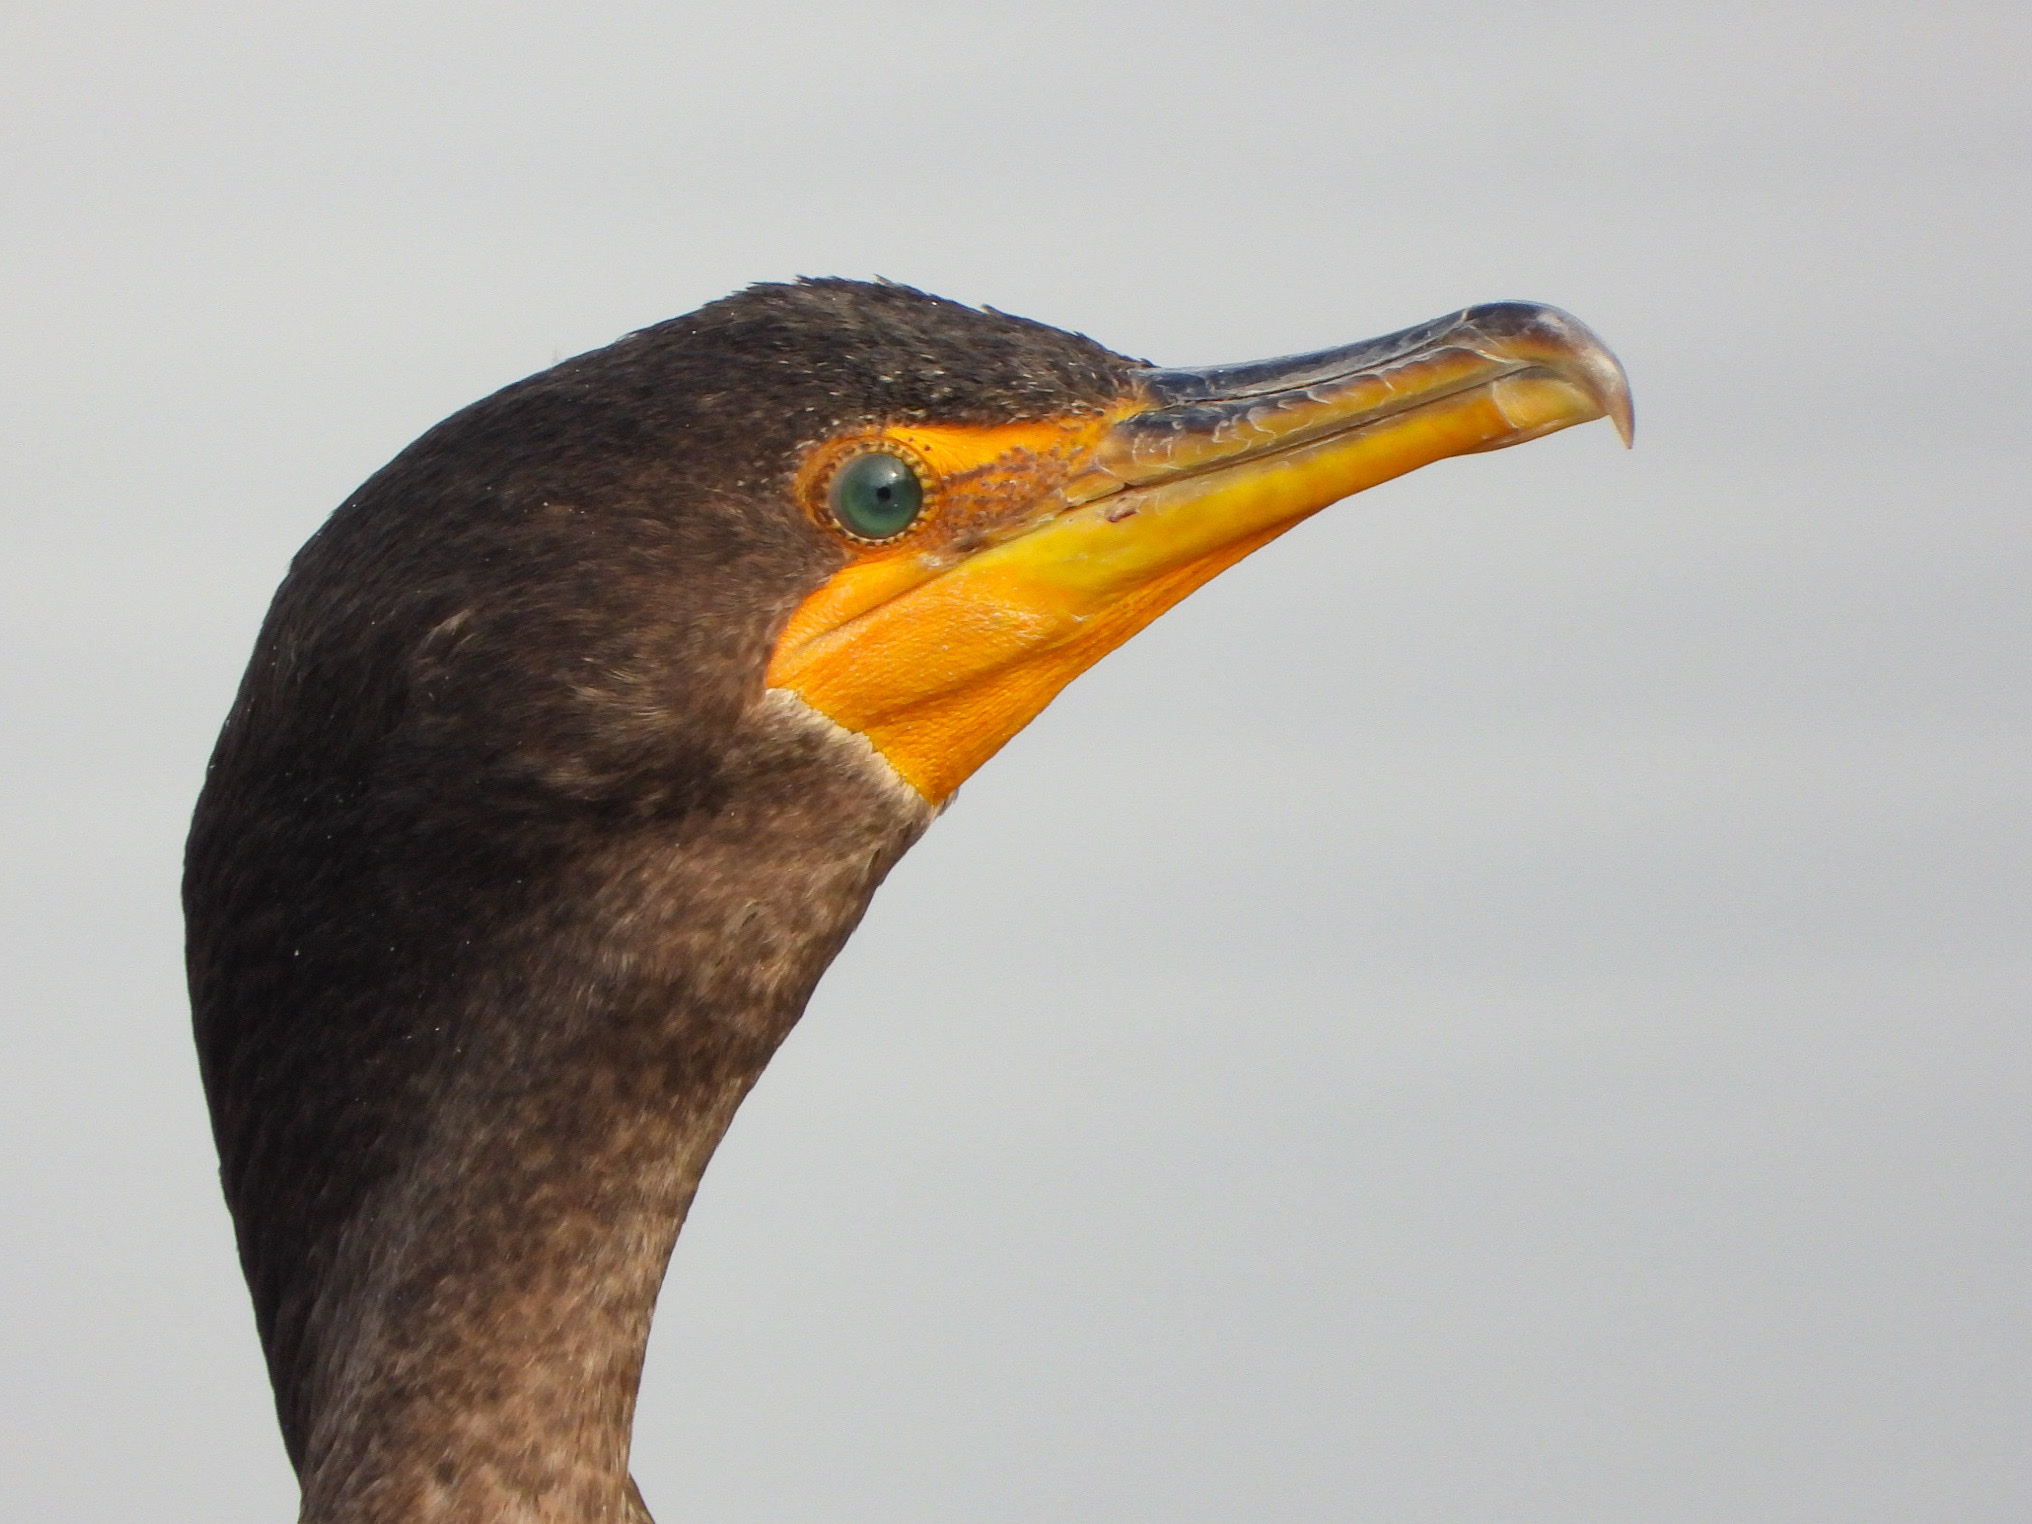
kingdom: Animalia
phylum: Chordata
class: Aves
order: Suliformes
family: Phalacrocoracidae
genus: Phalacrocorax
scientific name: Phalacrocorax auritus
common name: Double-crested cormorant
